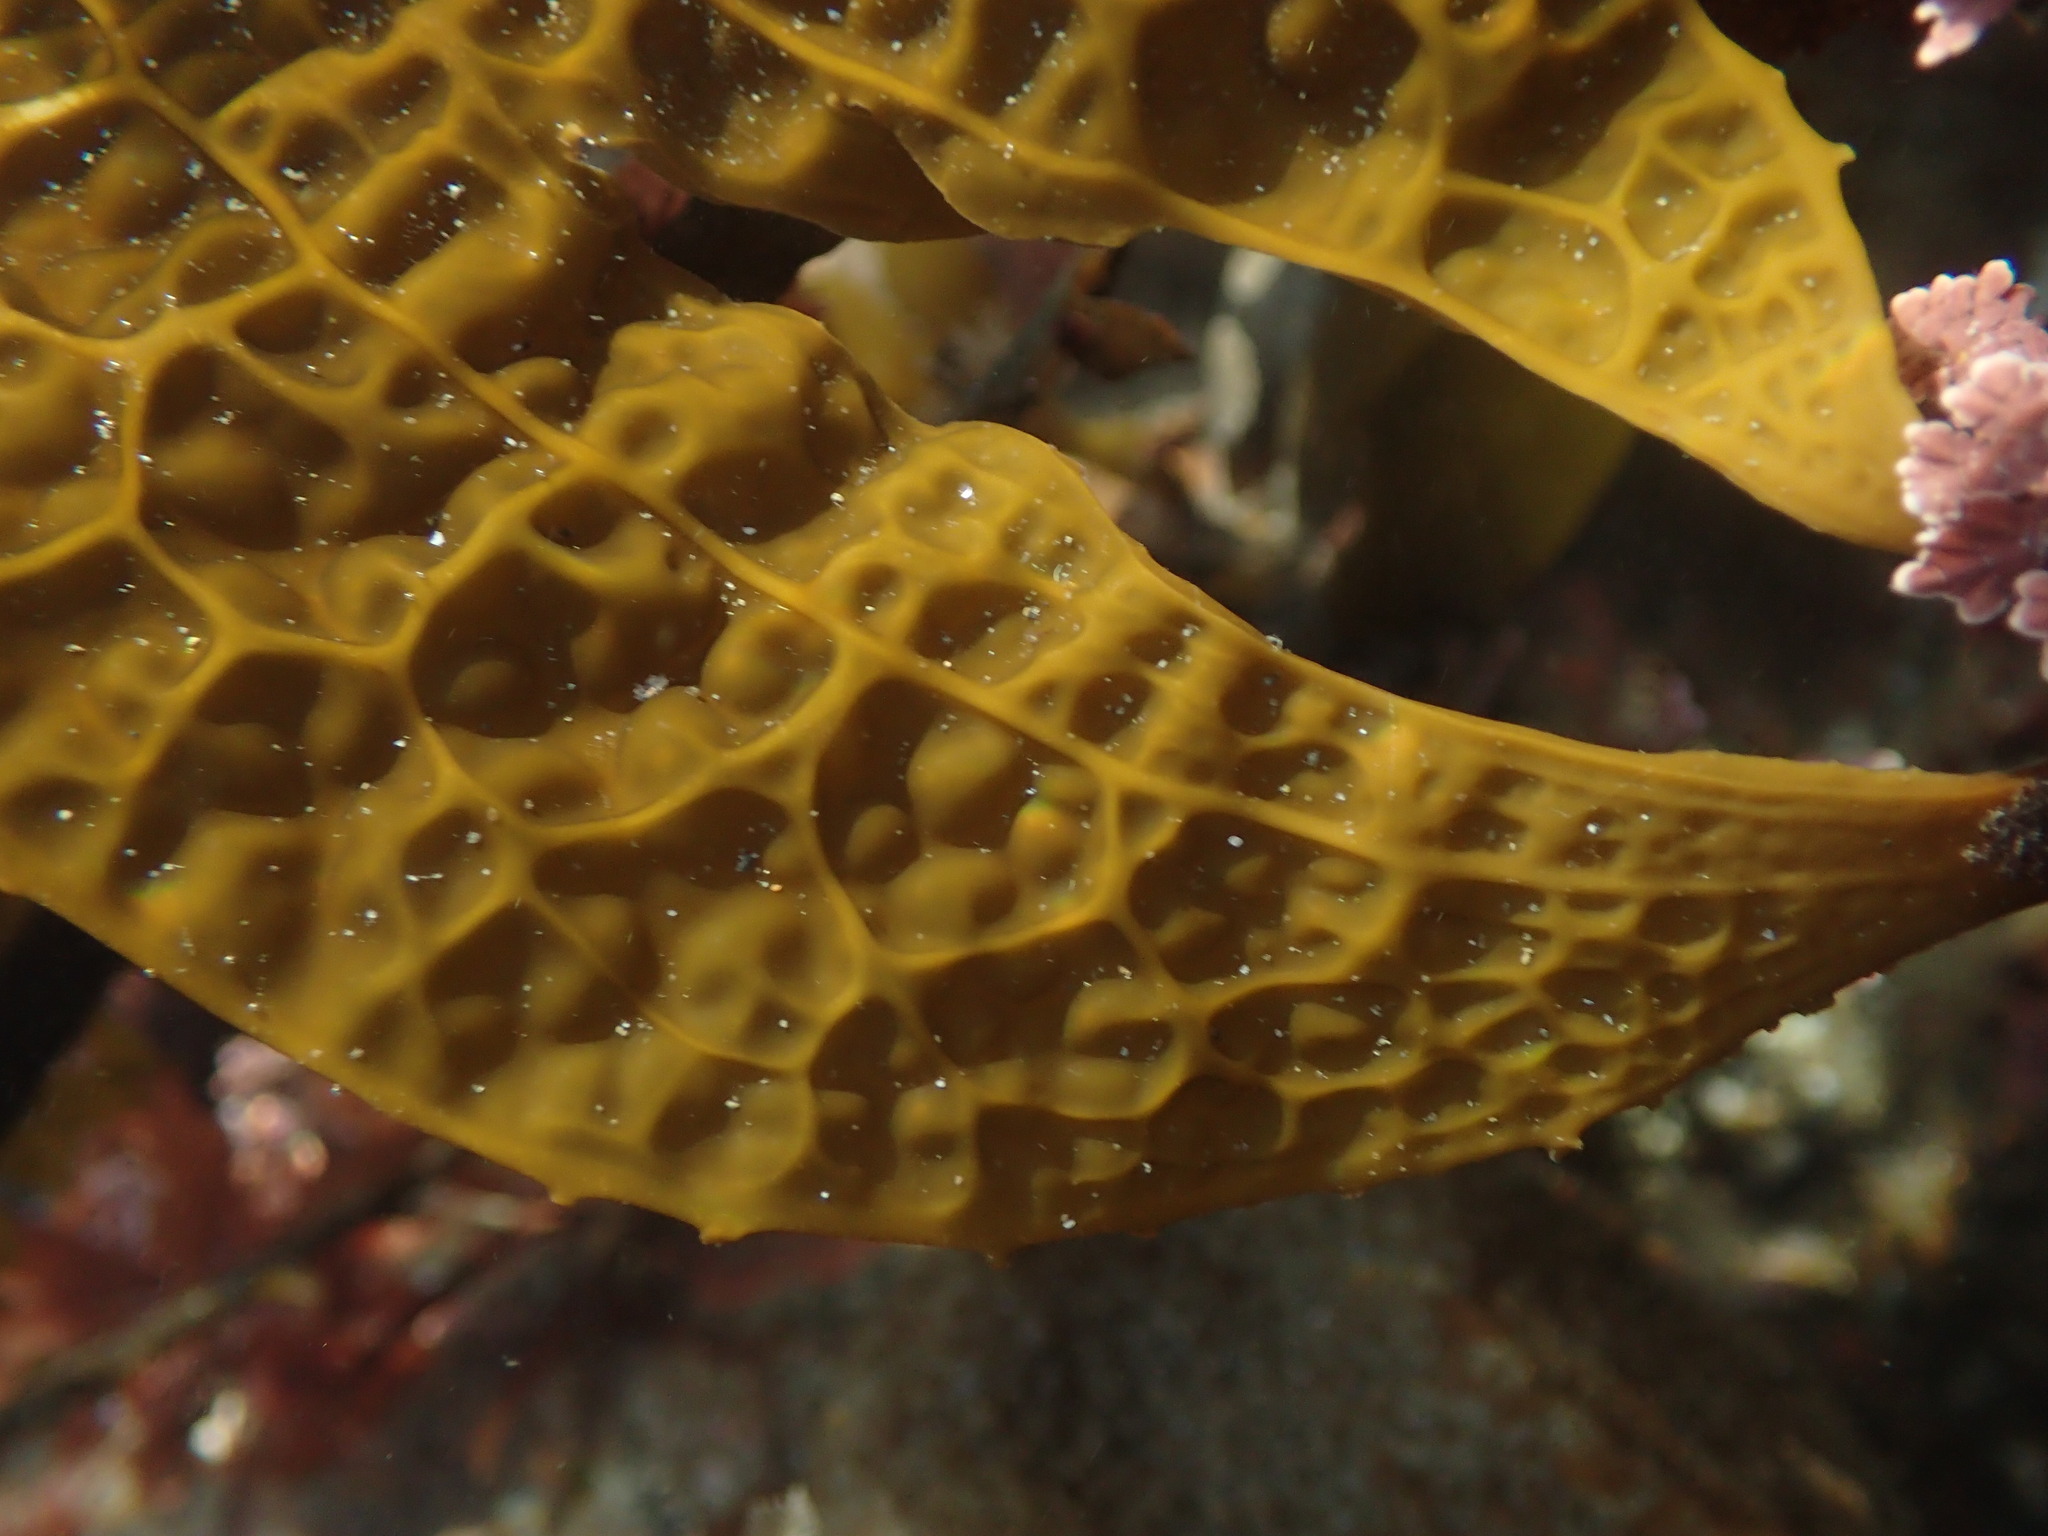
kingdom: Chromista
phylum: Ochrophyta
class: Phaeophyceae
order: Laminariales
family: Costariaceae
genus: Dictyoneurum
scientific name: Dictyoneurum californicum
